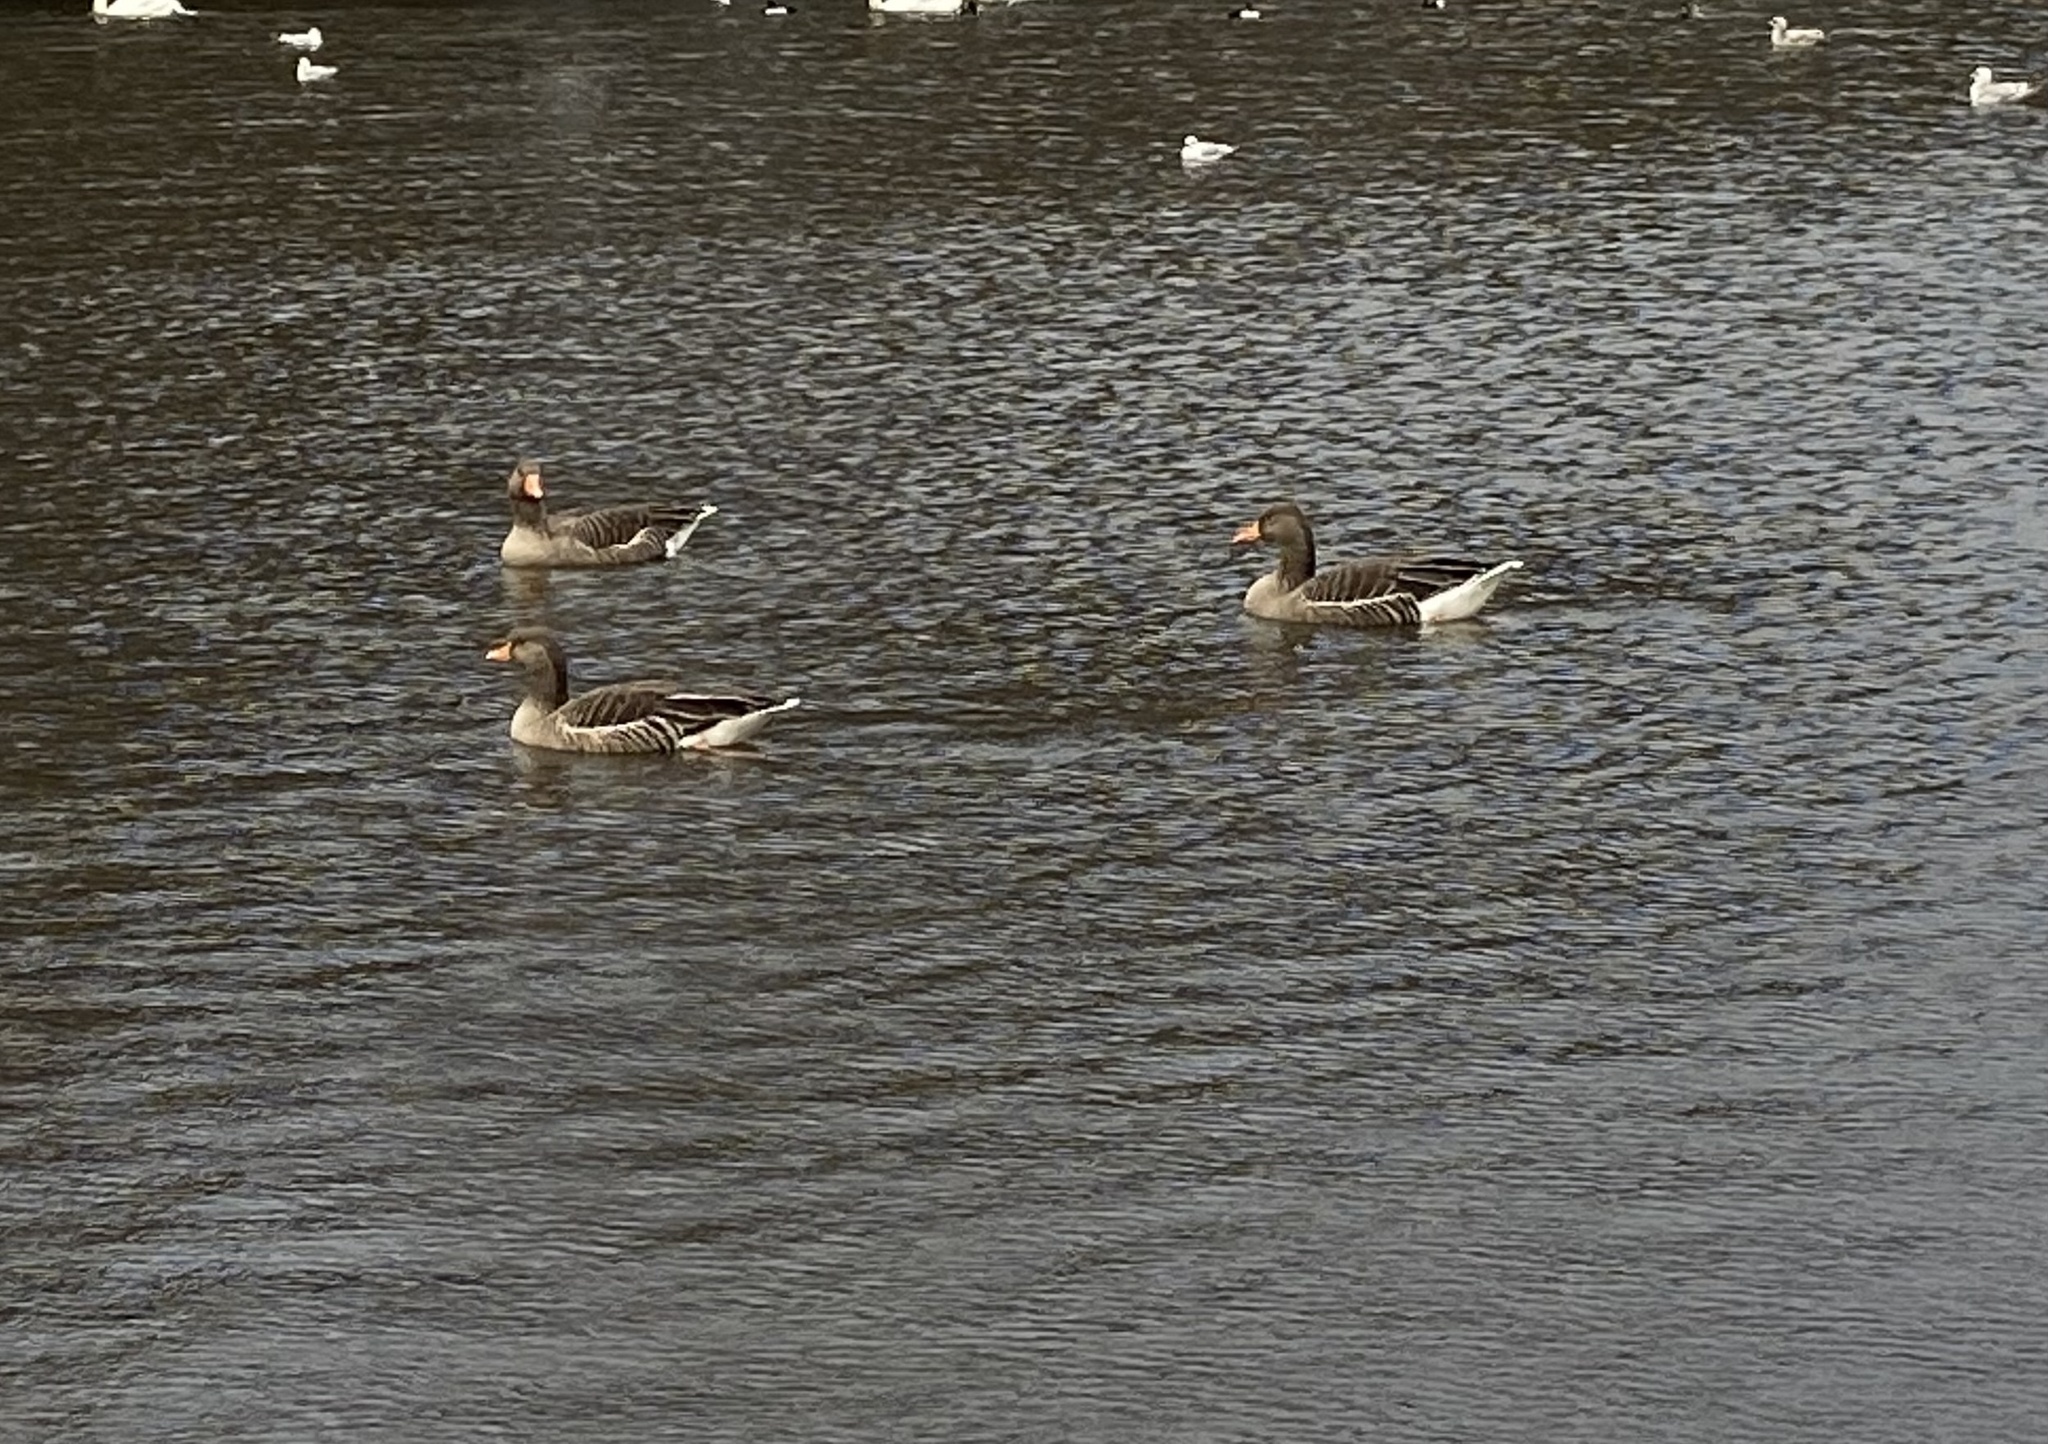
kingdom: Animalia
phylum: Chordata
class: Aves
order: Anseriformes
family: Anatidae
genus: Anser
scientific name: Anser anser
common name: Greylag goose
